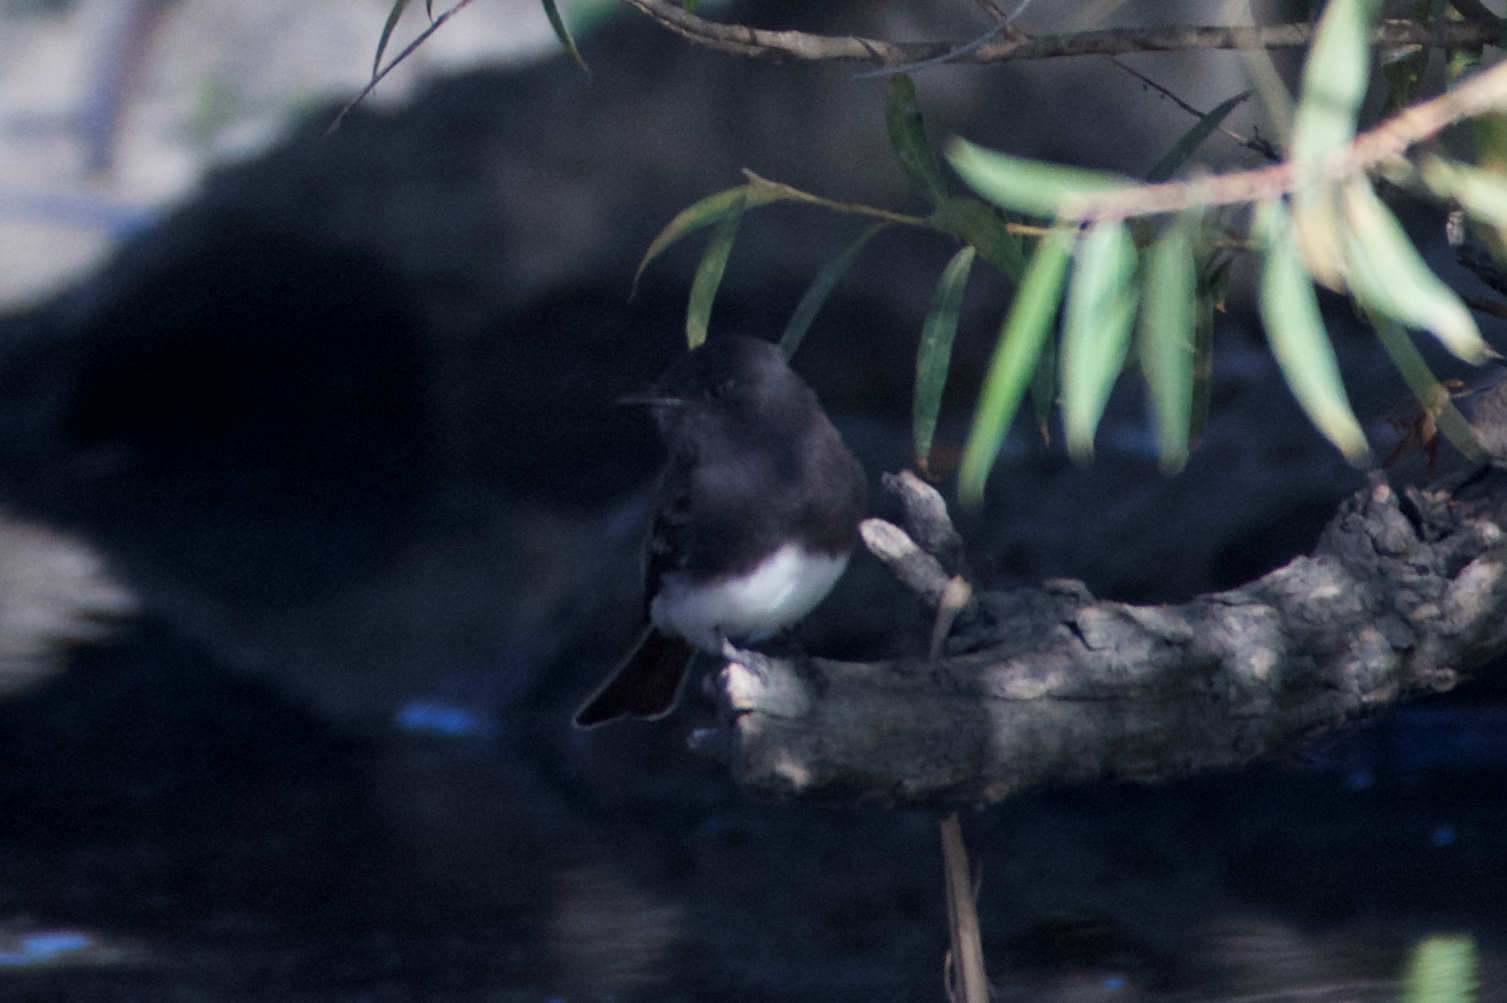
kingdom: Animalia
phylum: Chordata
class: Aves
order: Passeriformes
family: Tyrannidae
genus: Sayornis
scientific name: Sayornis nigricans
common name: Black phoebe
